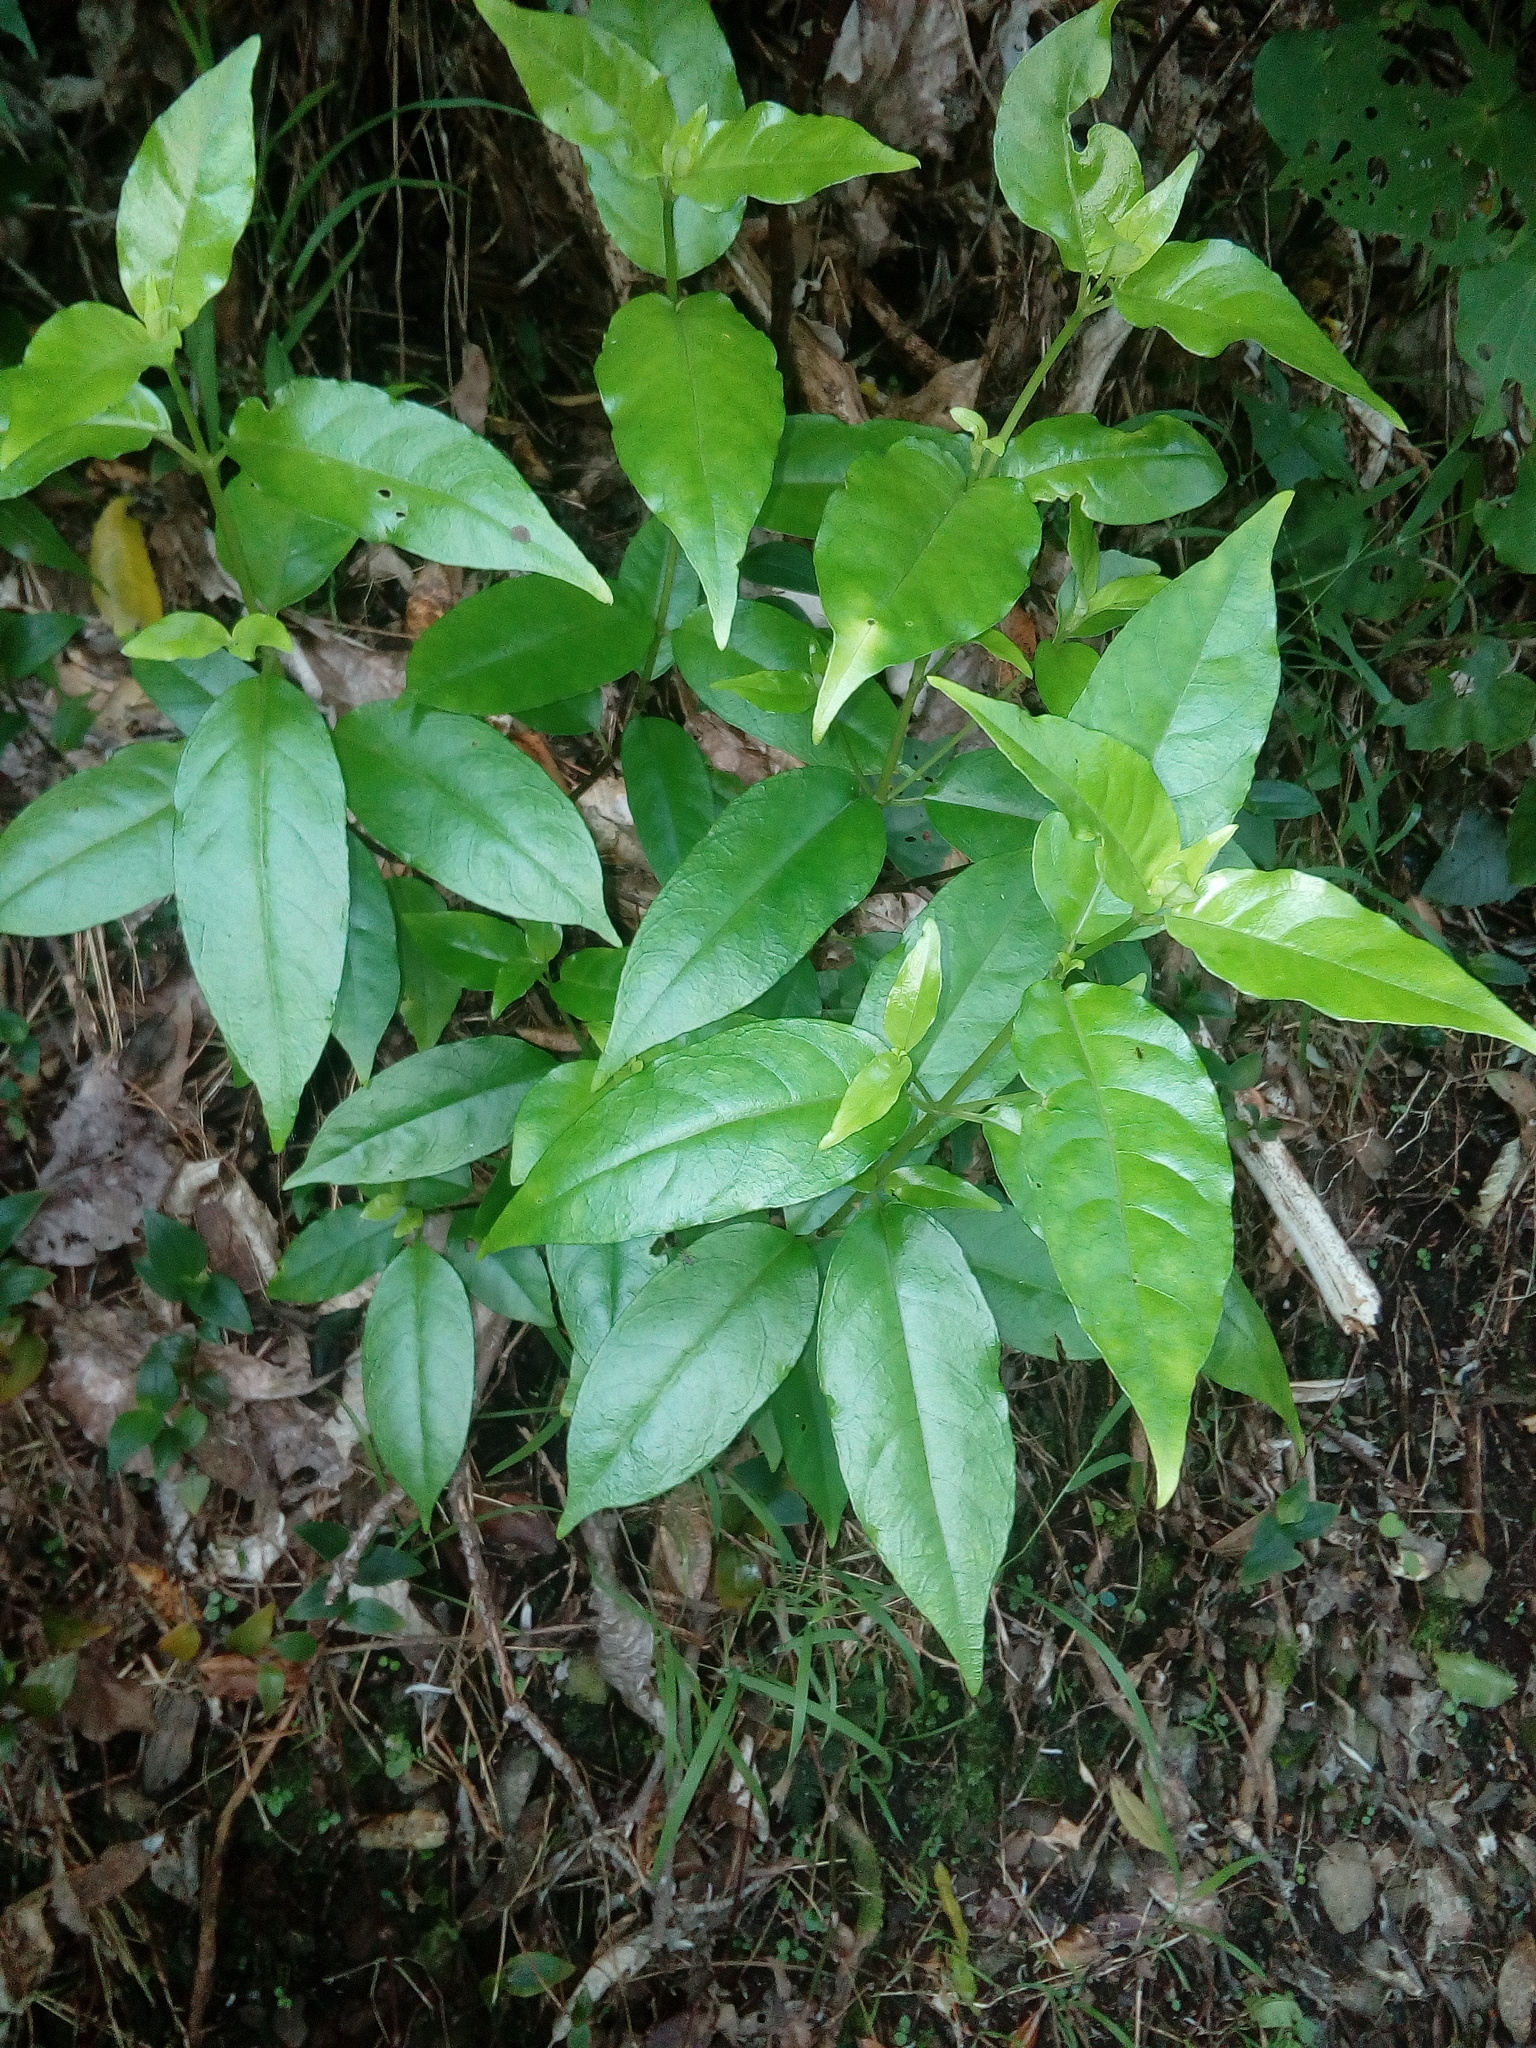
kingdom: Plantae
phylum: Tracheophyta
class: Magnoliopsida
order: Gentianales
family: Loganiaceae
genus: Geniostoma
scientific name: Geniostoma ligustrifolium
